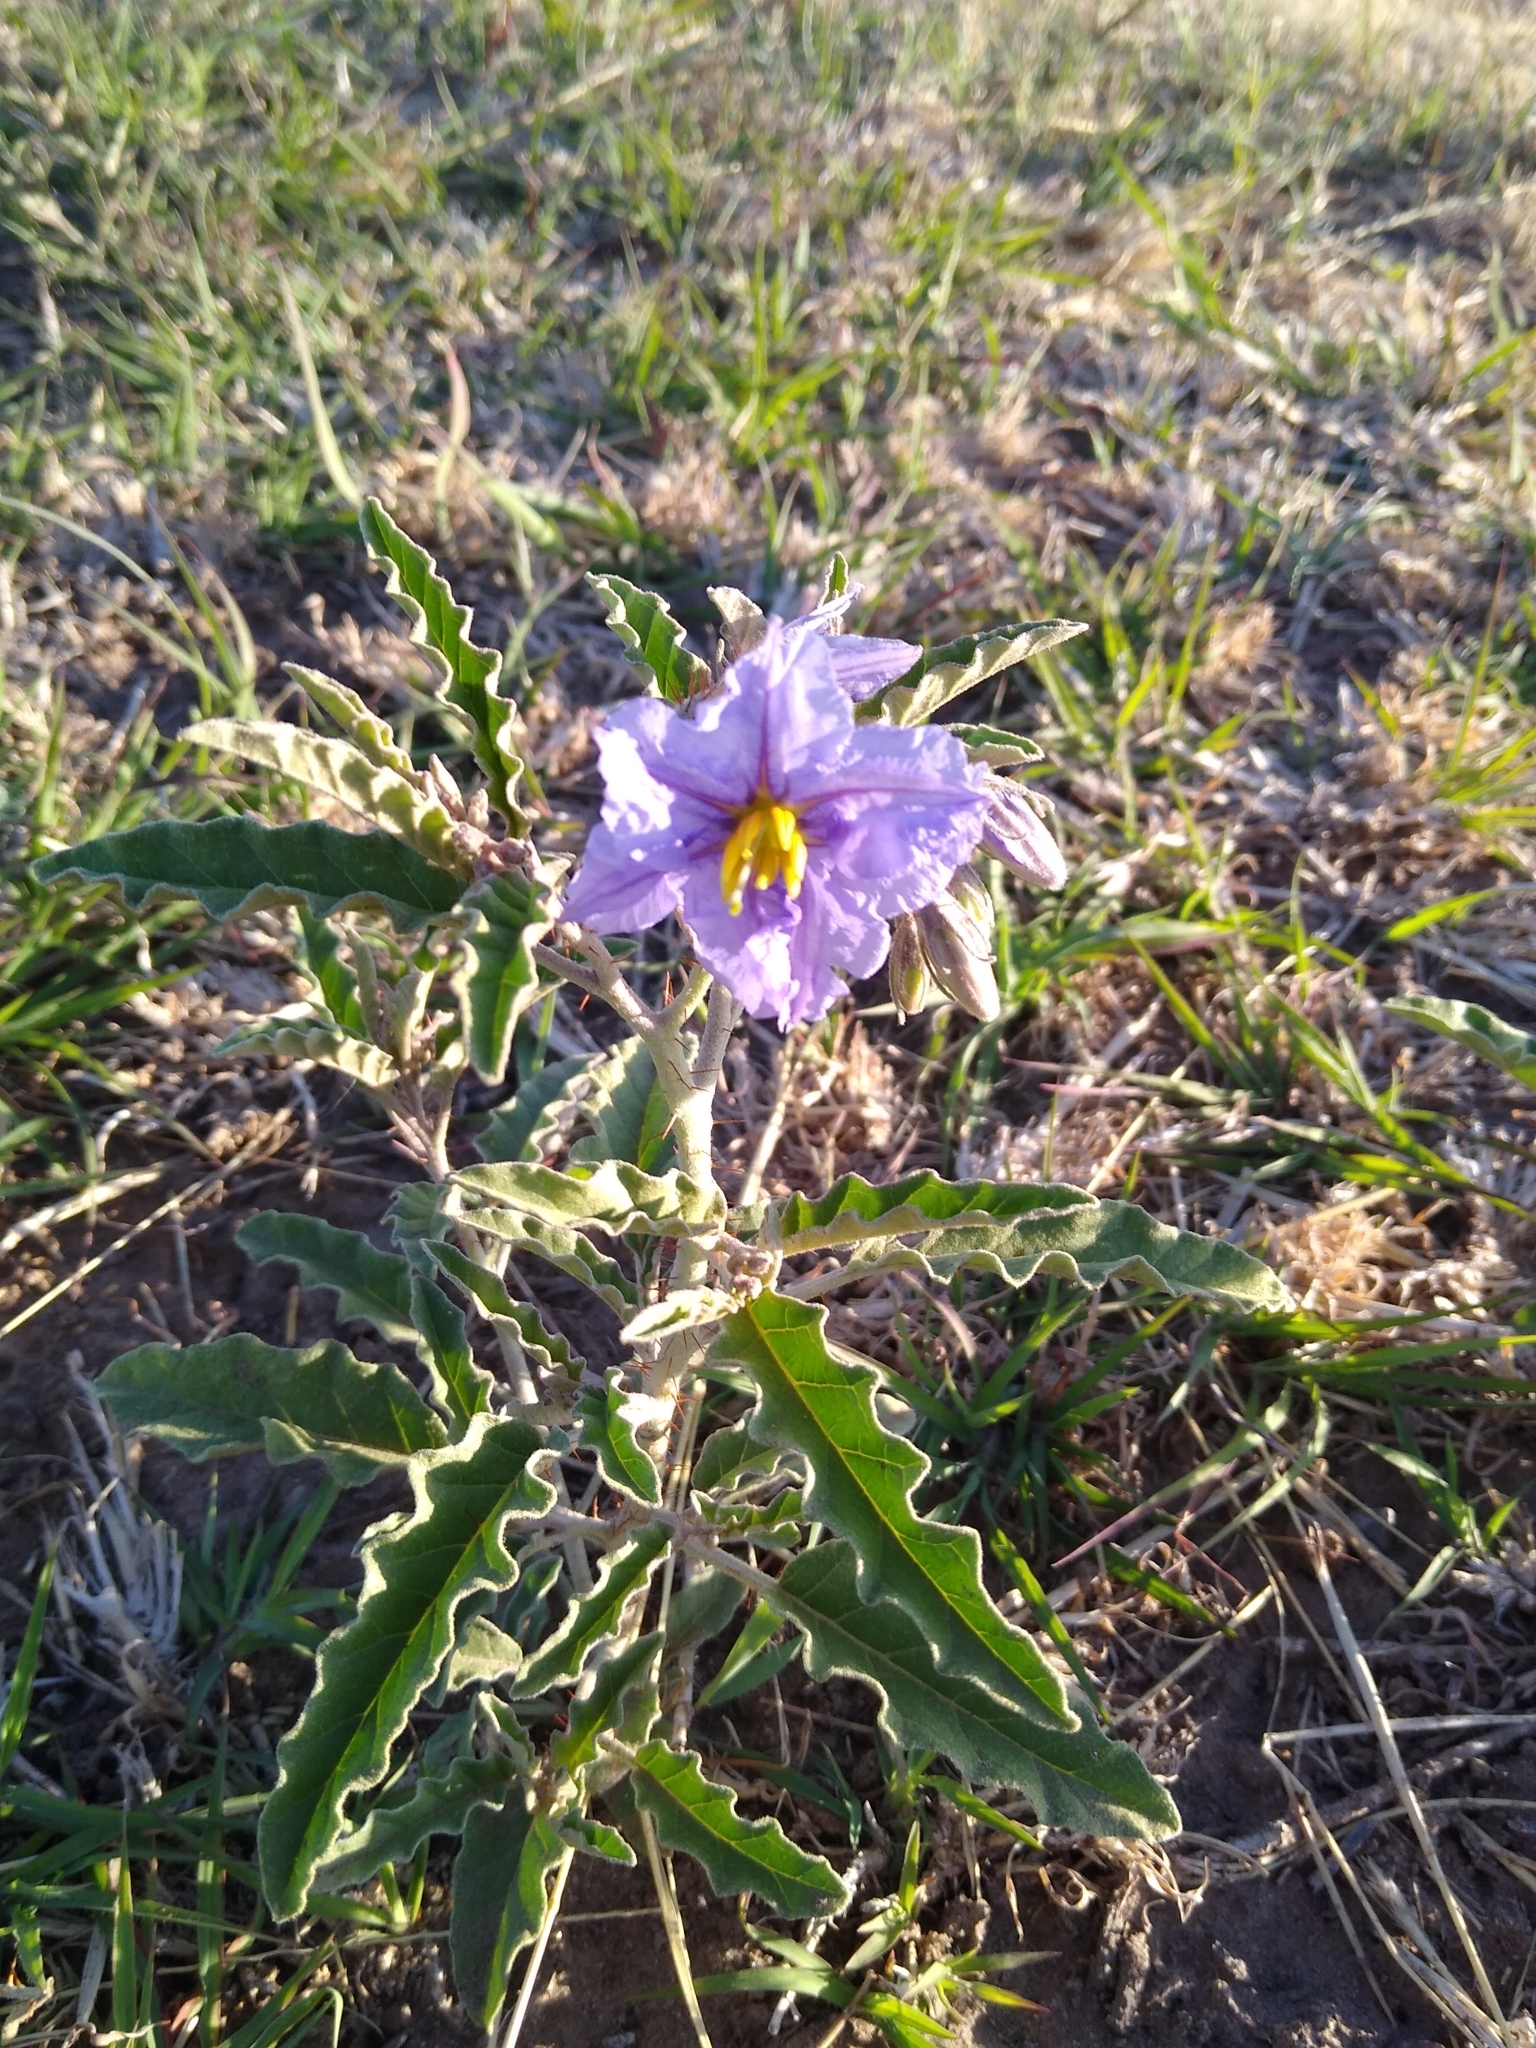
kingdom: Plantae
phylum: Tracheophyta
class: Magnoliopsida
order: Solanales
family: Solanaceae
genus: Solanum
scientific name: Solanum elaeagnifolium
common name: Silverleaf nightshade
